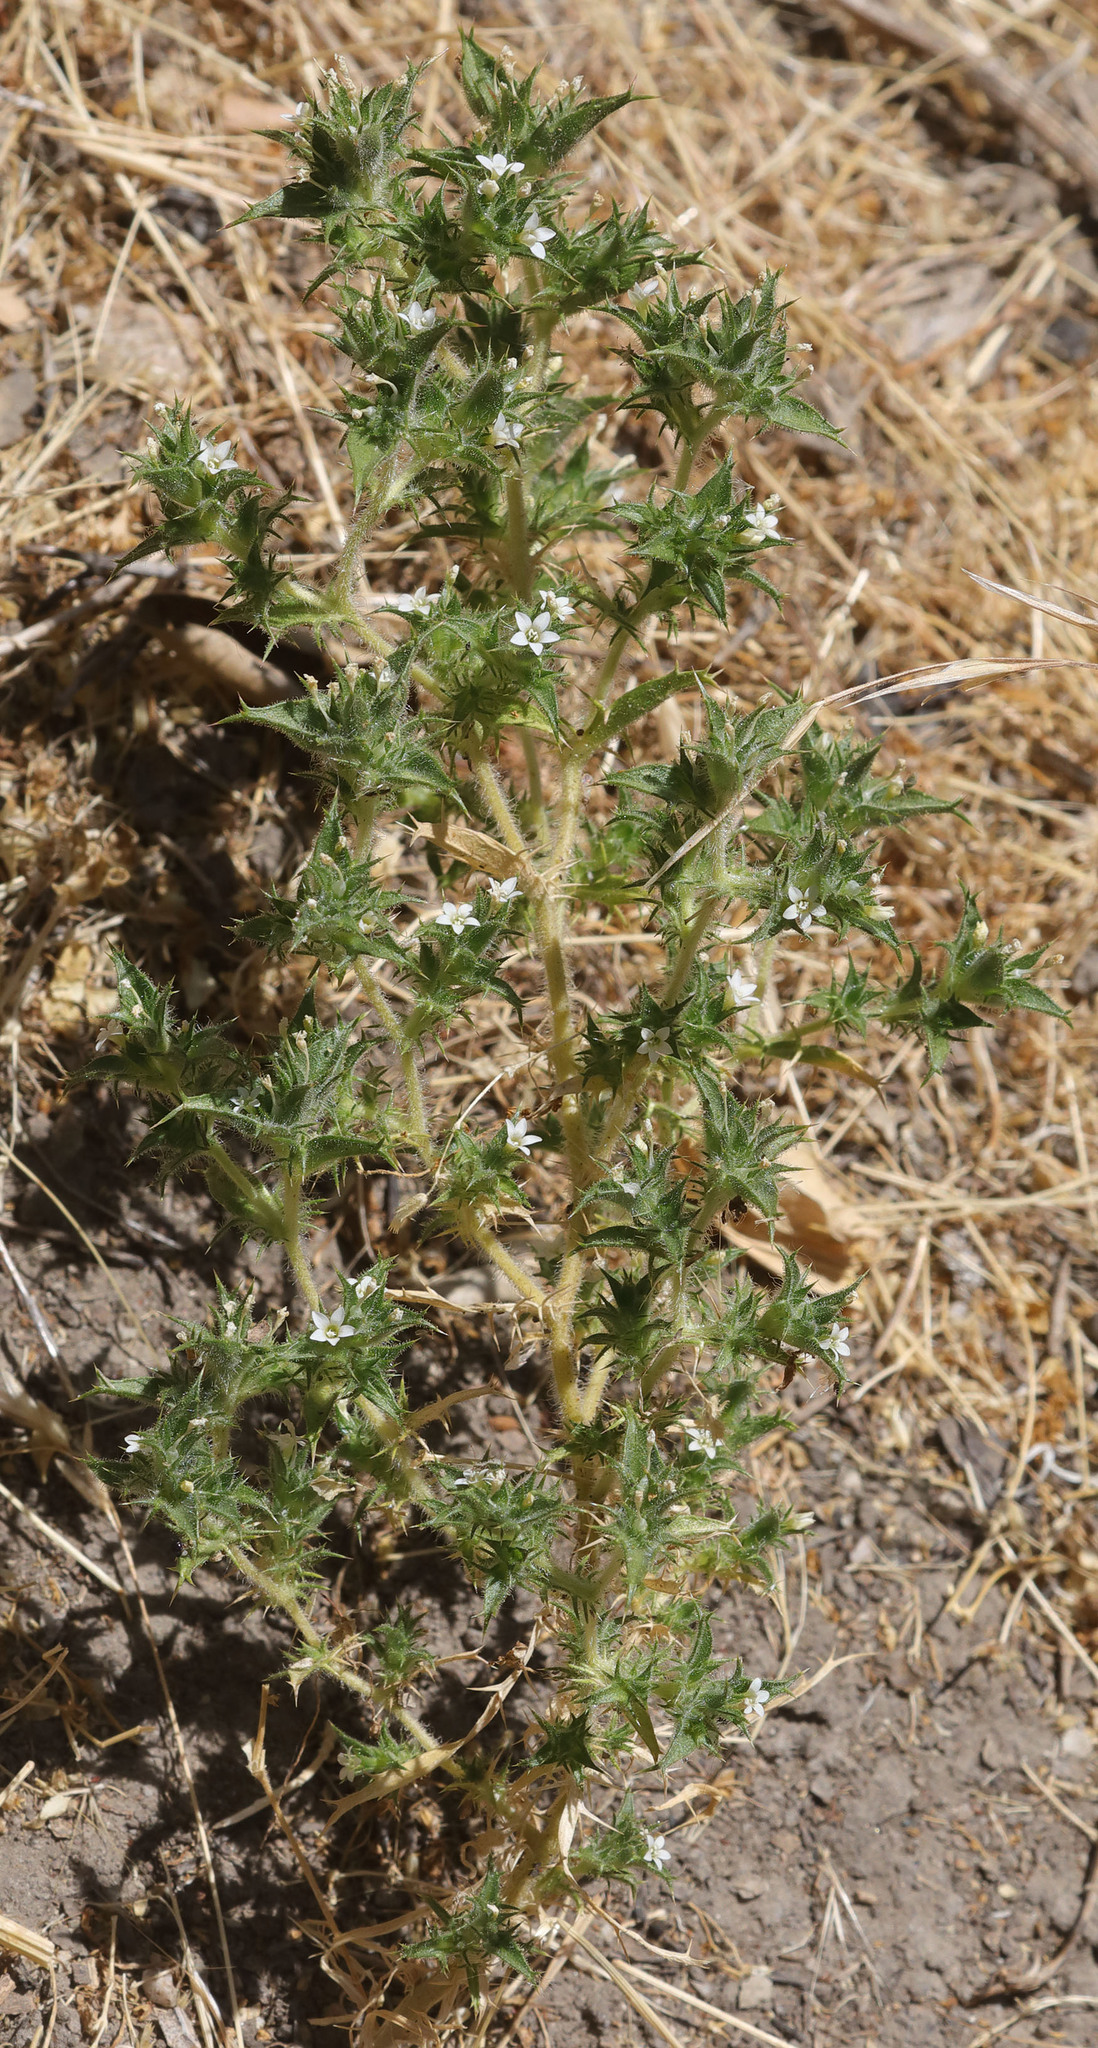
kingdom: Plantae
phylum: Tracheophyta
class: Magnoliopsida
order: Ericales
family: Polemoniaceae
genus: Navarretia
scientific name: Navarretia atractyloides
